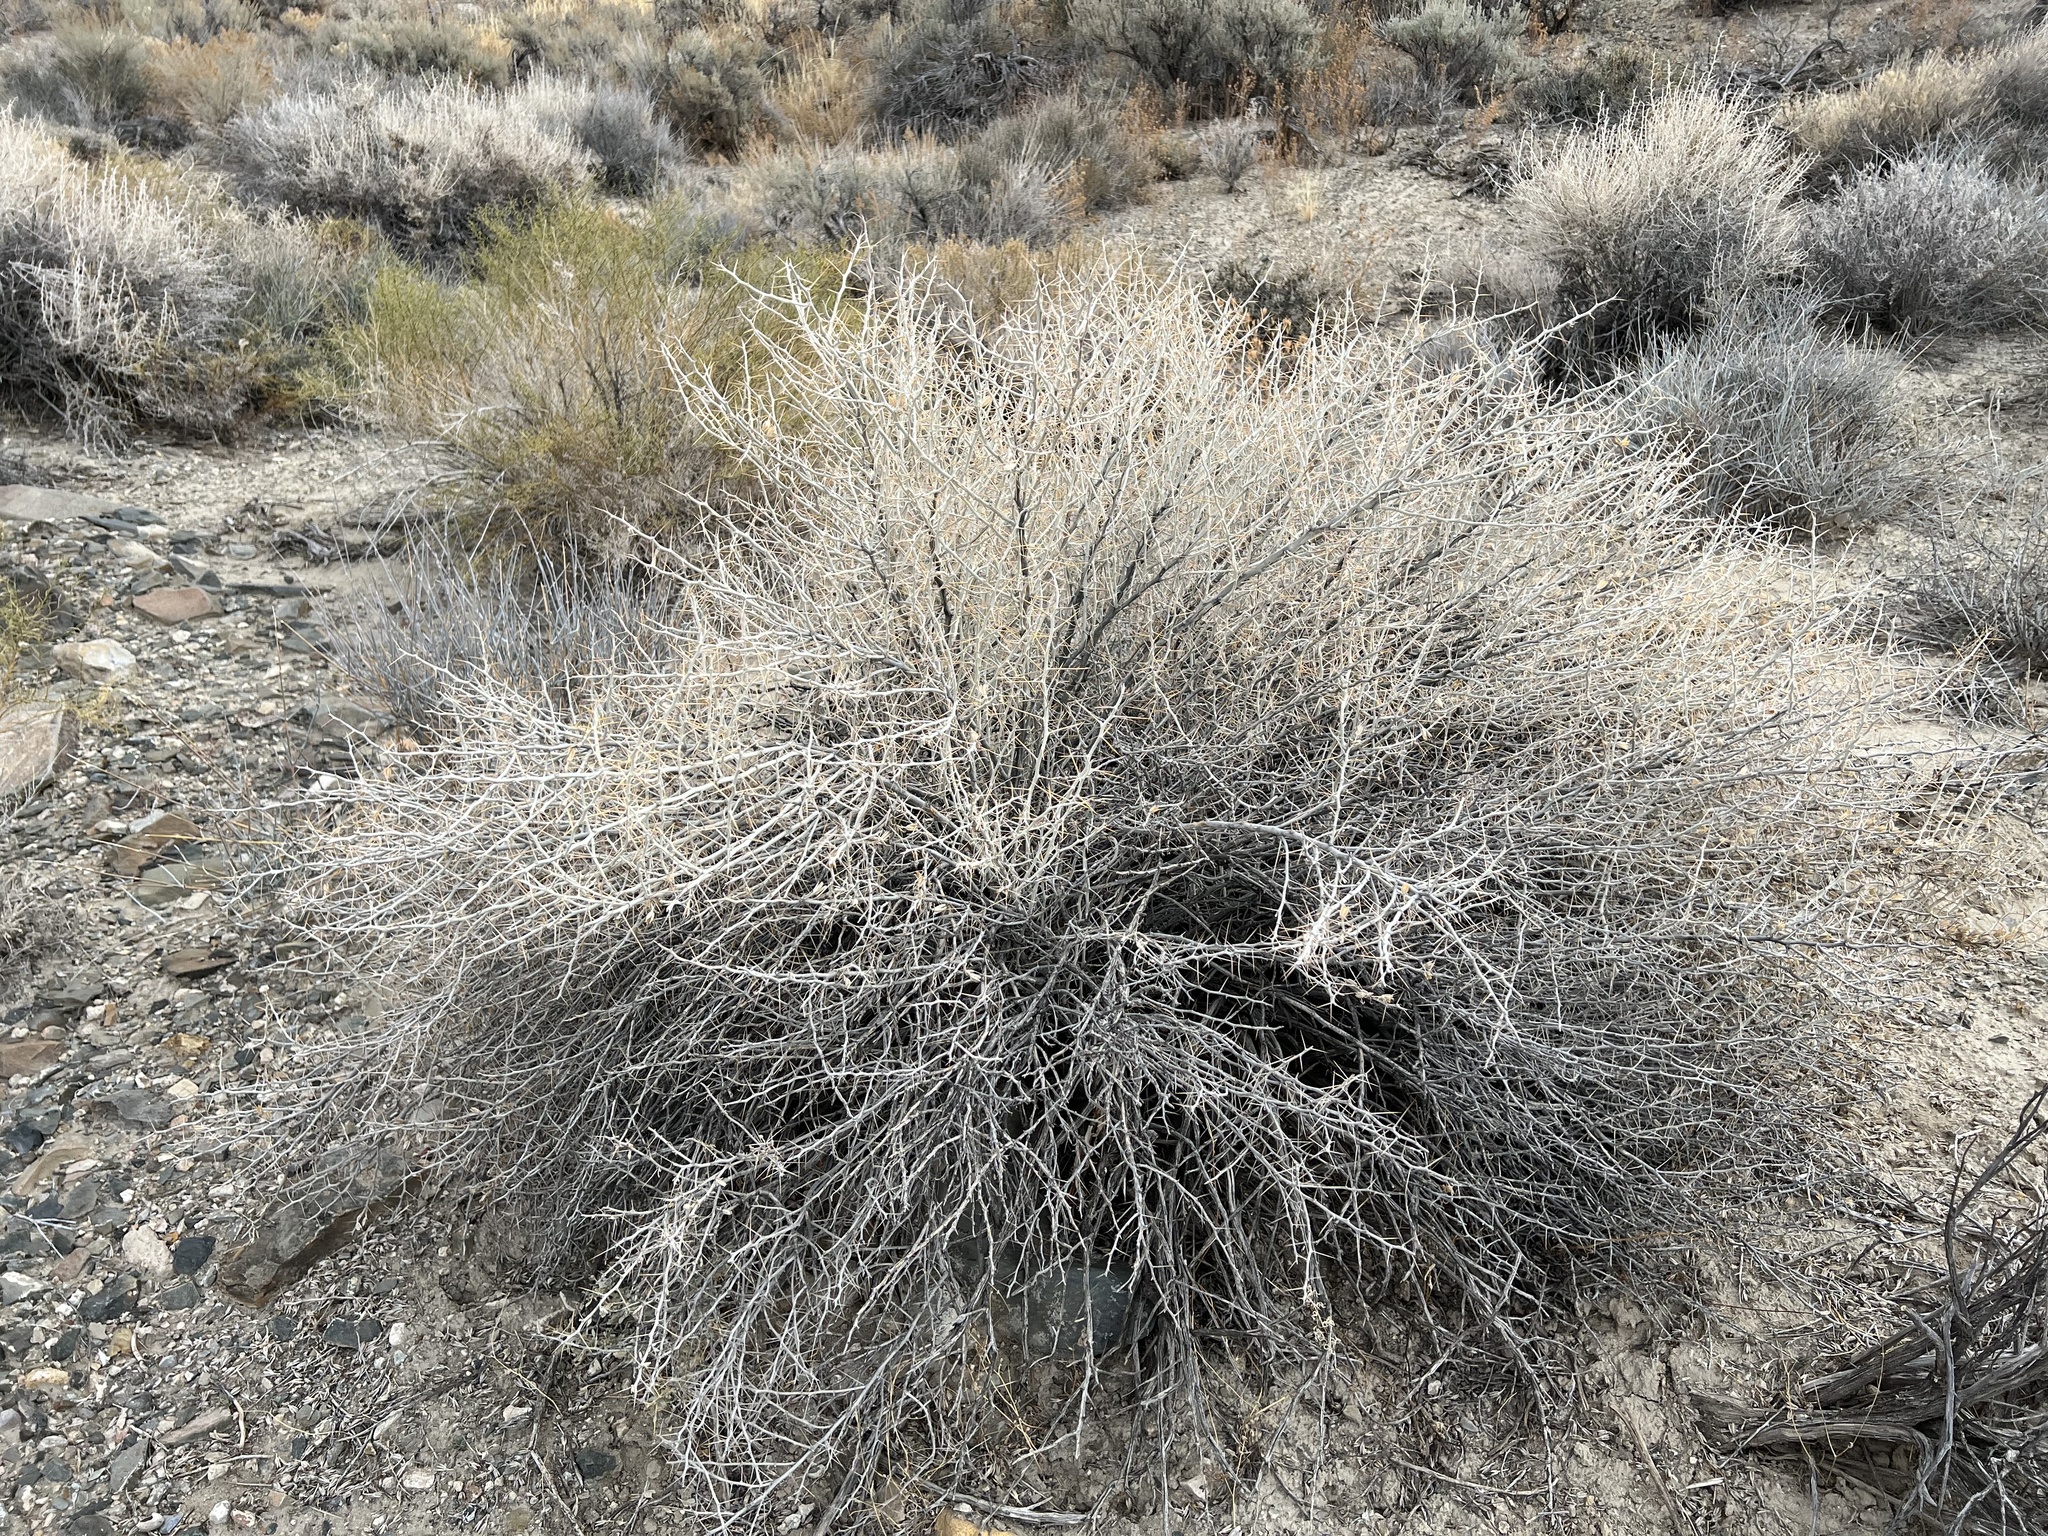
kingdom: Plantae
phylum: Tracheophyta
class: Magnoliopsida
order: Asterales
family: Asteraceae
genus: Tetradymia
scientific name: Tetradymia axillaris
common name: Long-spine horsebrush
